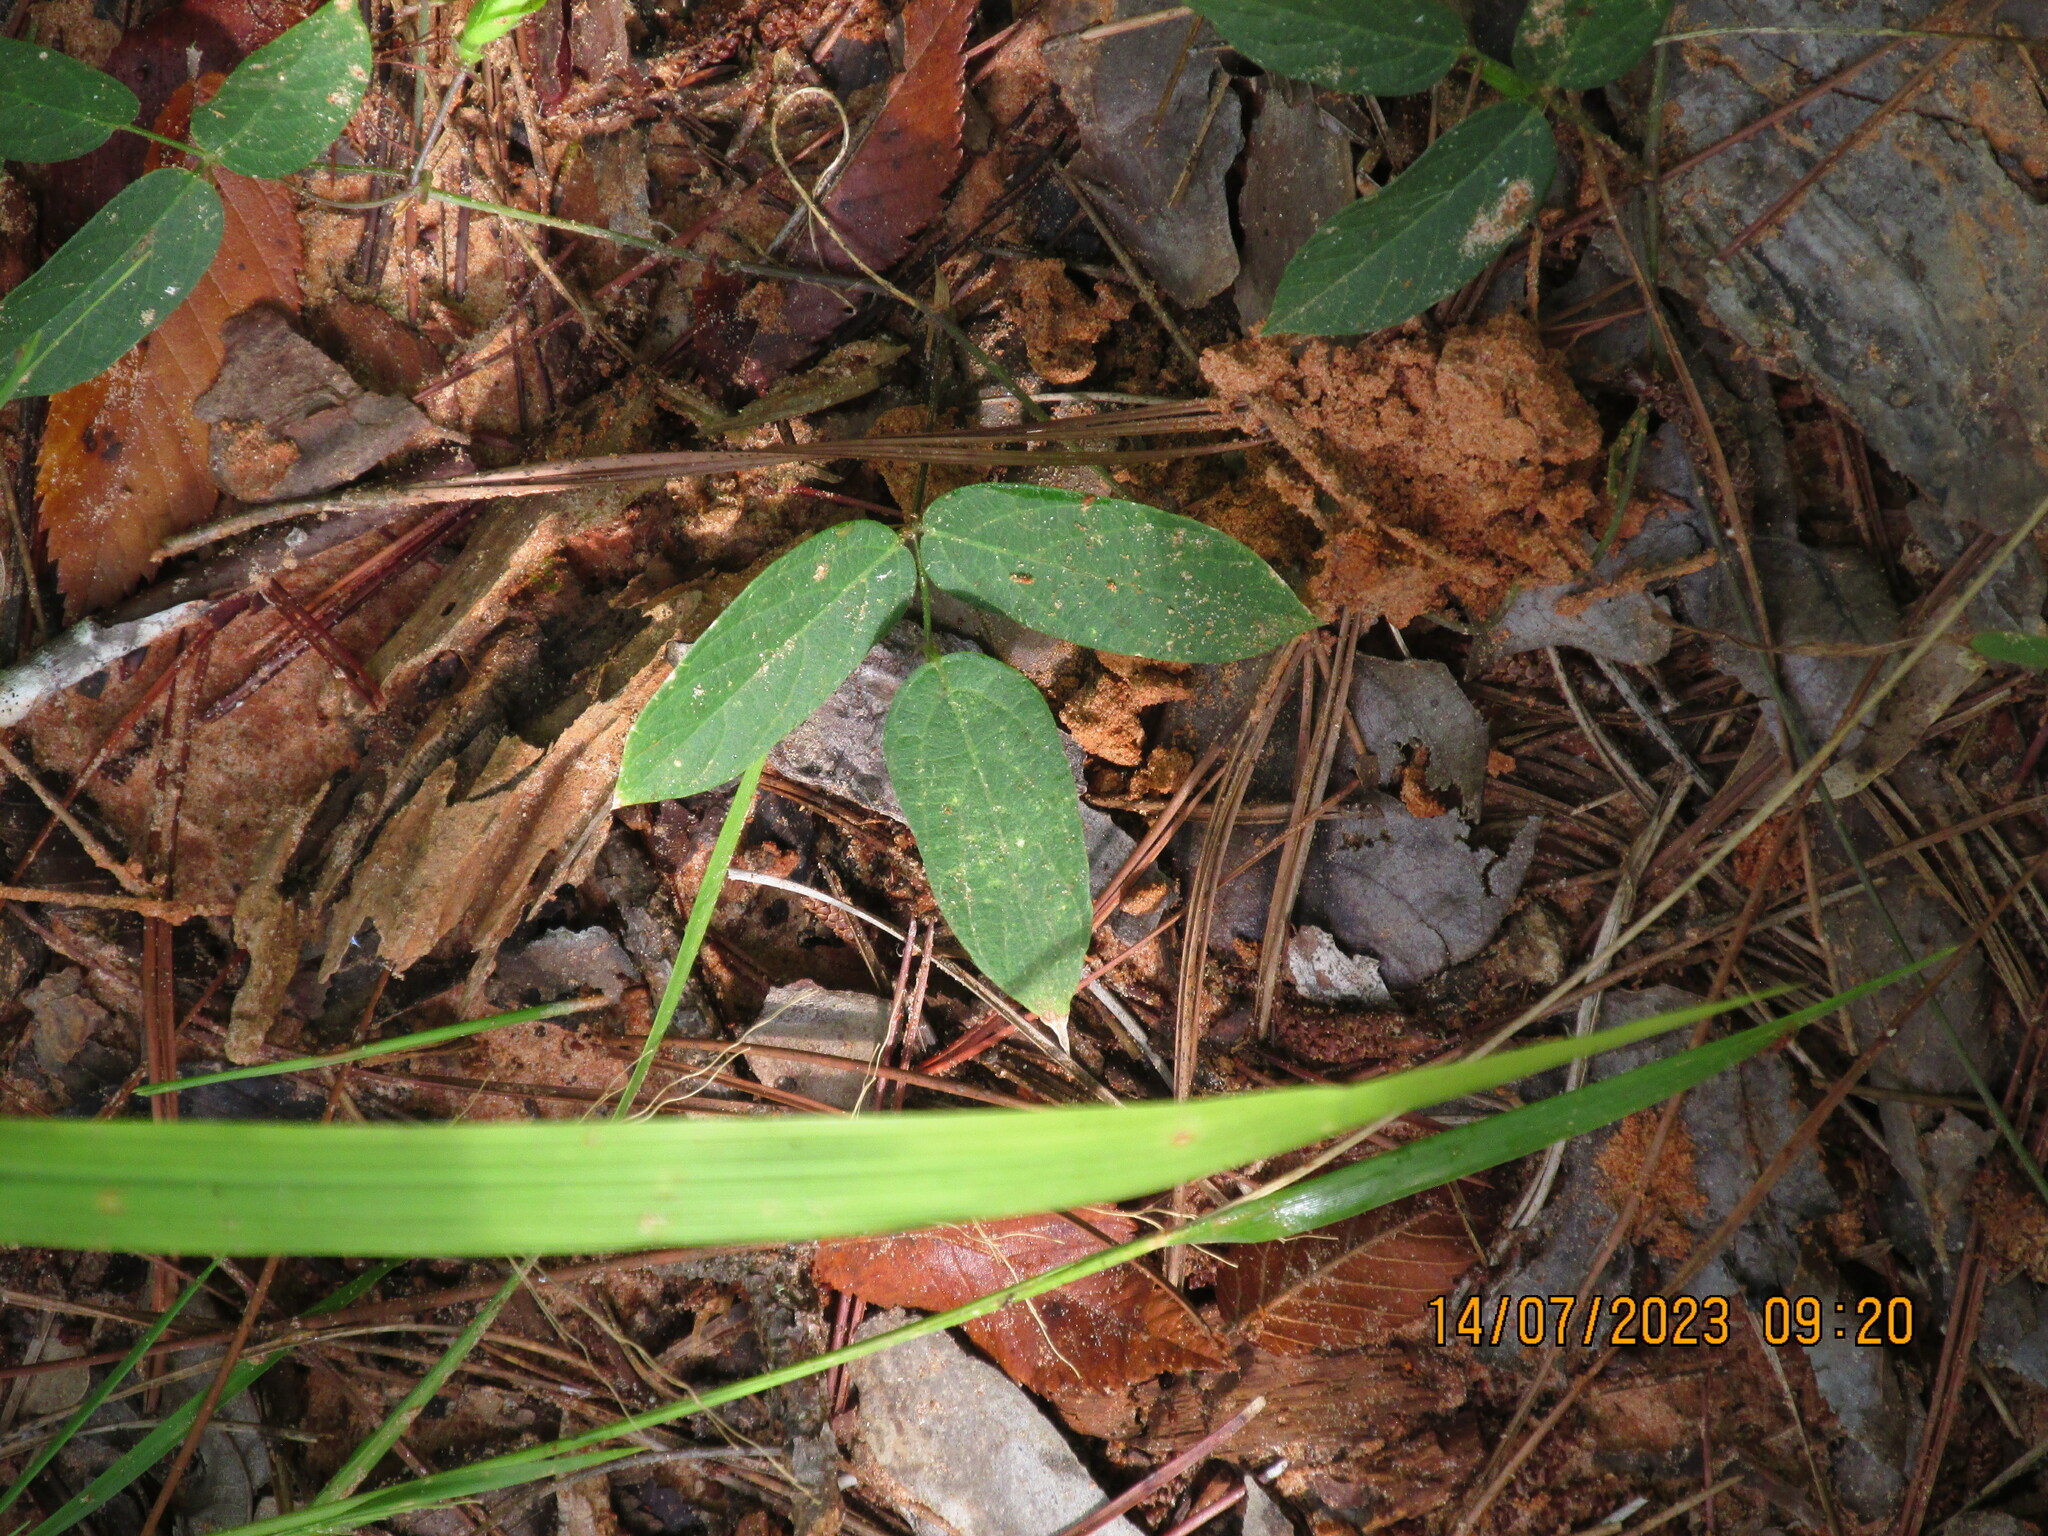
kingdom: Plantae
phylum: Tracheophyta
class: Magnoliopsida
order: Fabales
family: Fabaceae
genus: Clitoria
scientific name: Clitoria mariana
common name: Butterfly-pea
